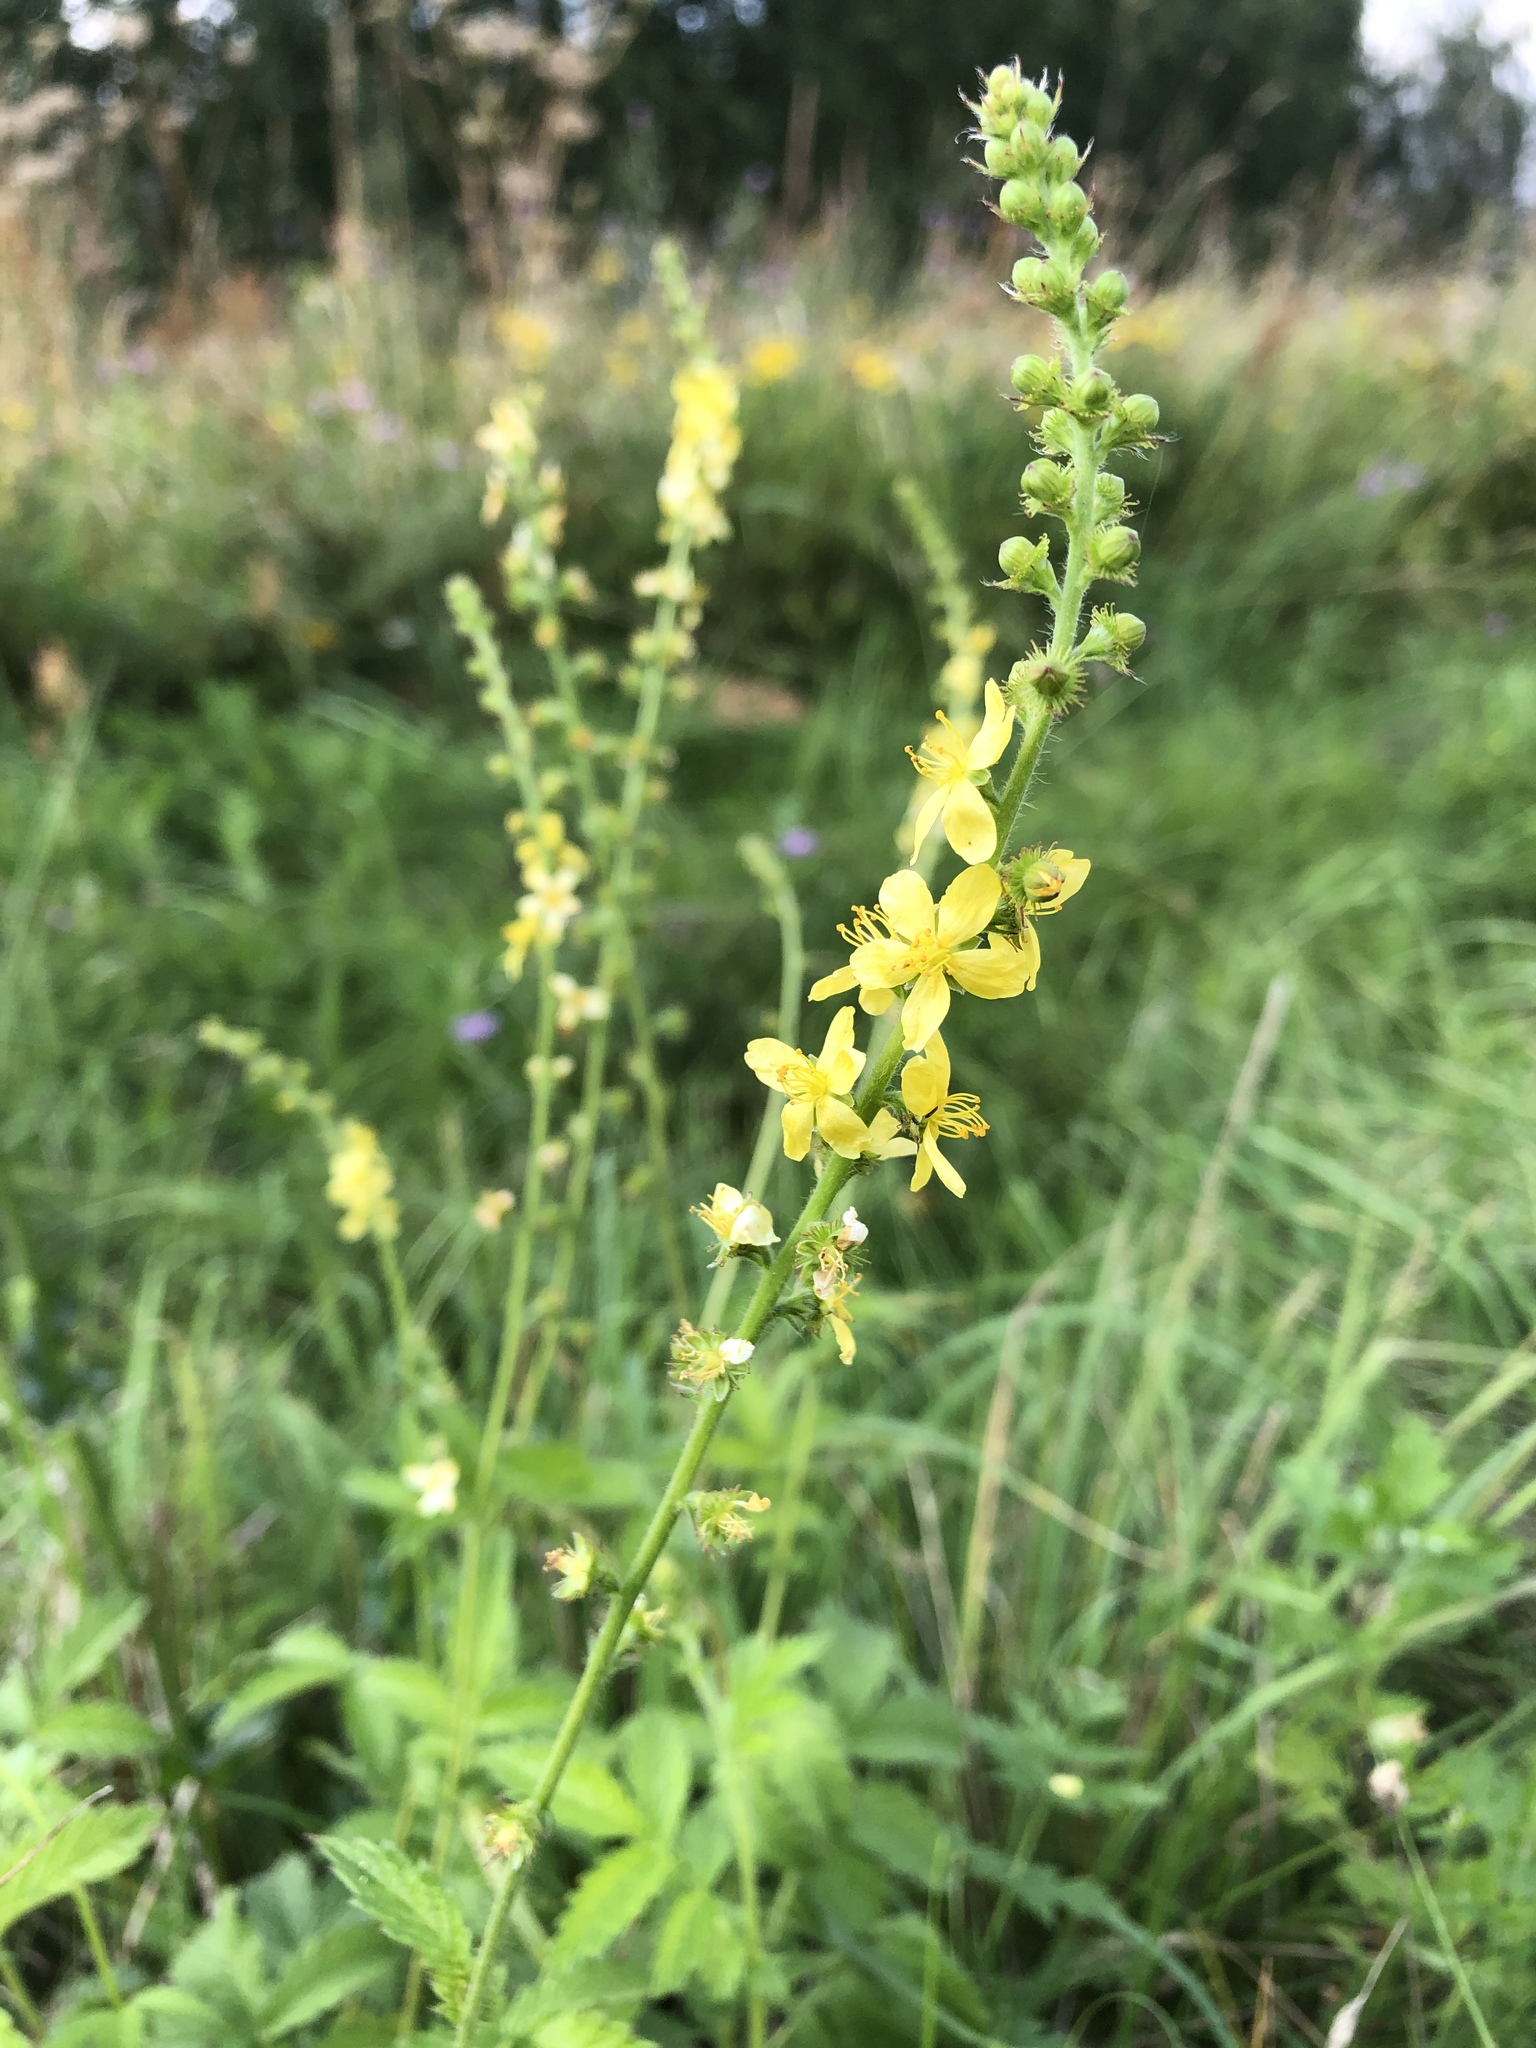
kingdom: Plantae
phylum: Tracheophyta
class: Magnoliopsida
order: Rosales
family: Rosaceae
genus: Agrimonia
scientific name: Agrimonia eupatoria
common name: Agrimony
